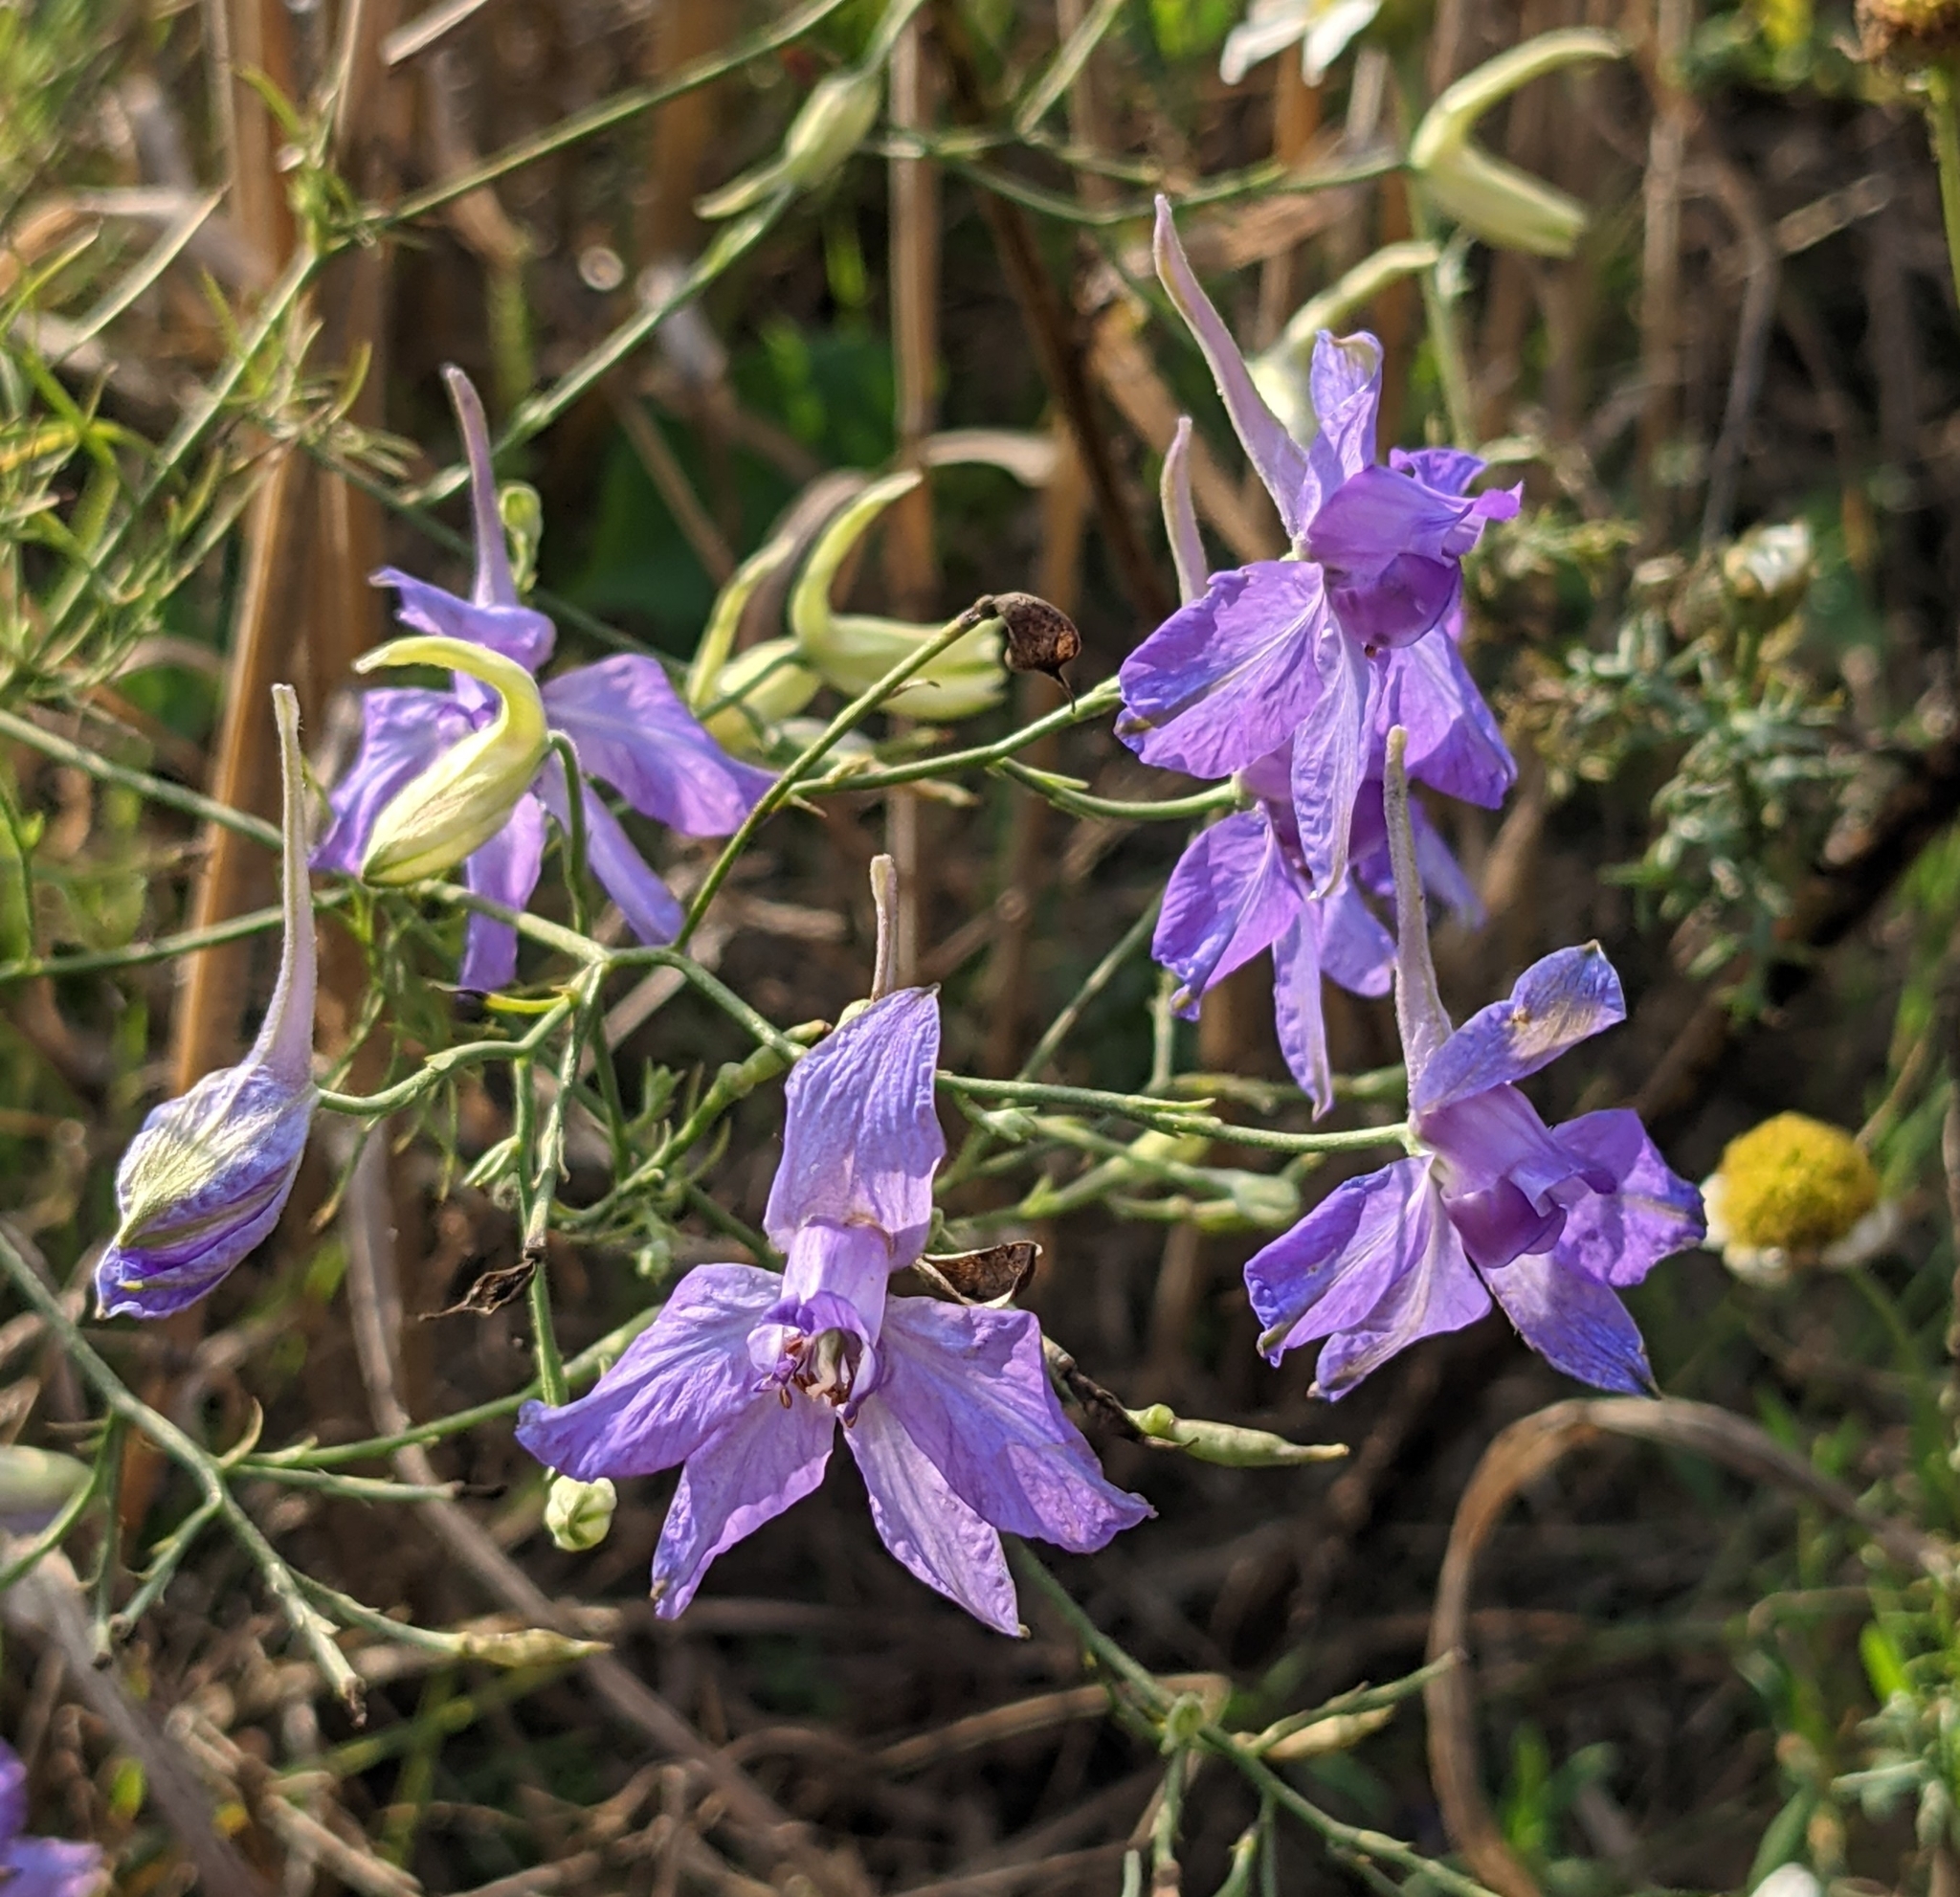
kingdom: Plantae
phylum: Tracheophyta
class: Magnoliopsida
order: Ranunculales
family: Ranunculaceae
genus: Delphinium
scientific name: Delphinium consolida
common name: Branching larkspur
